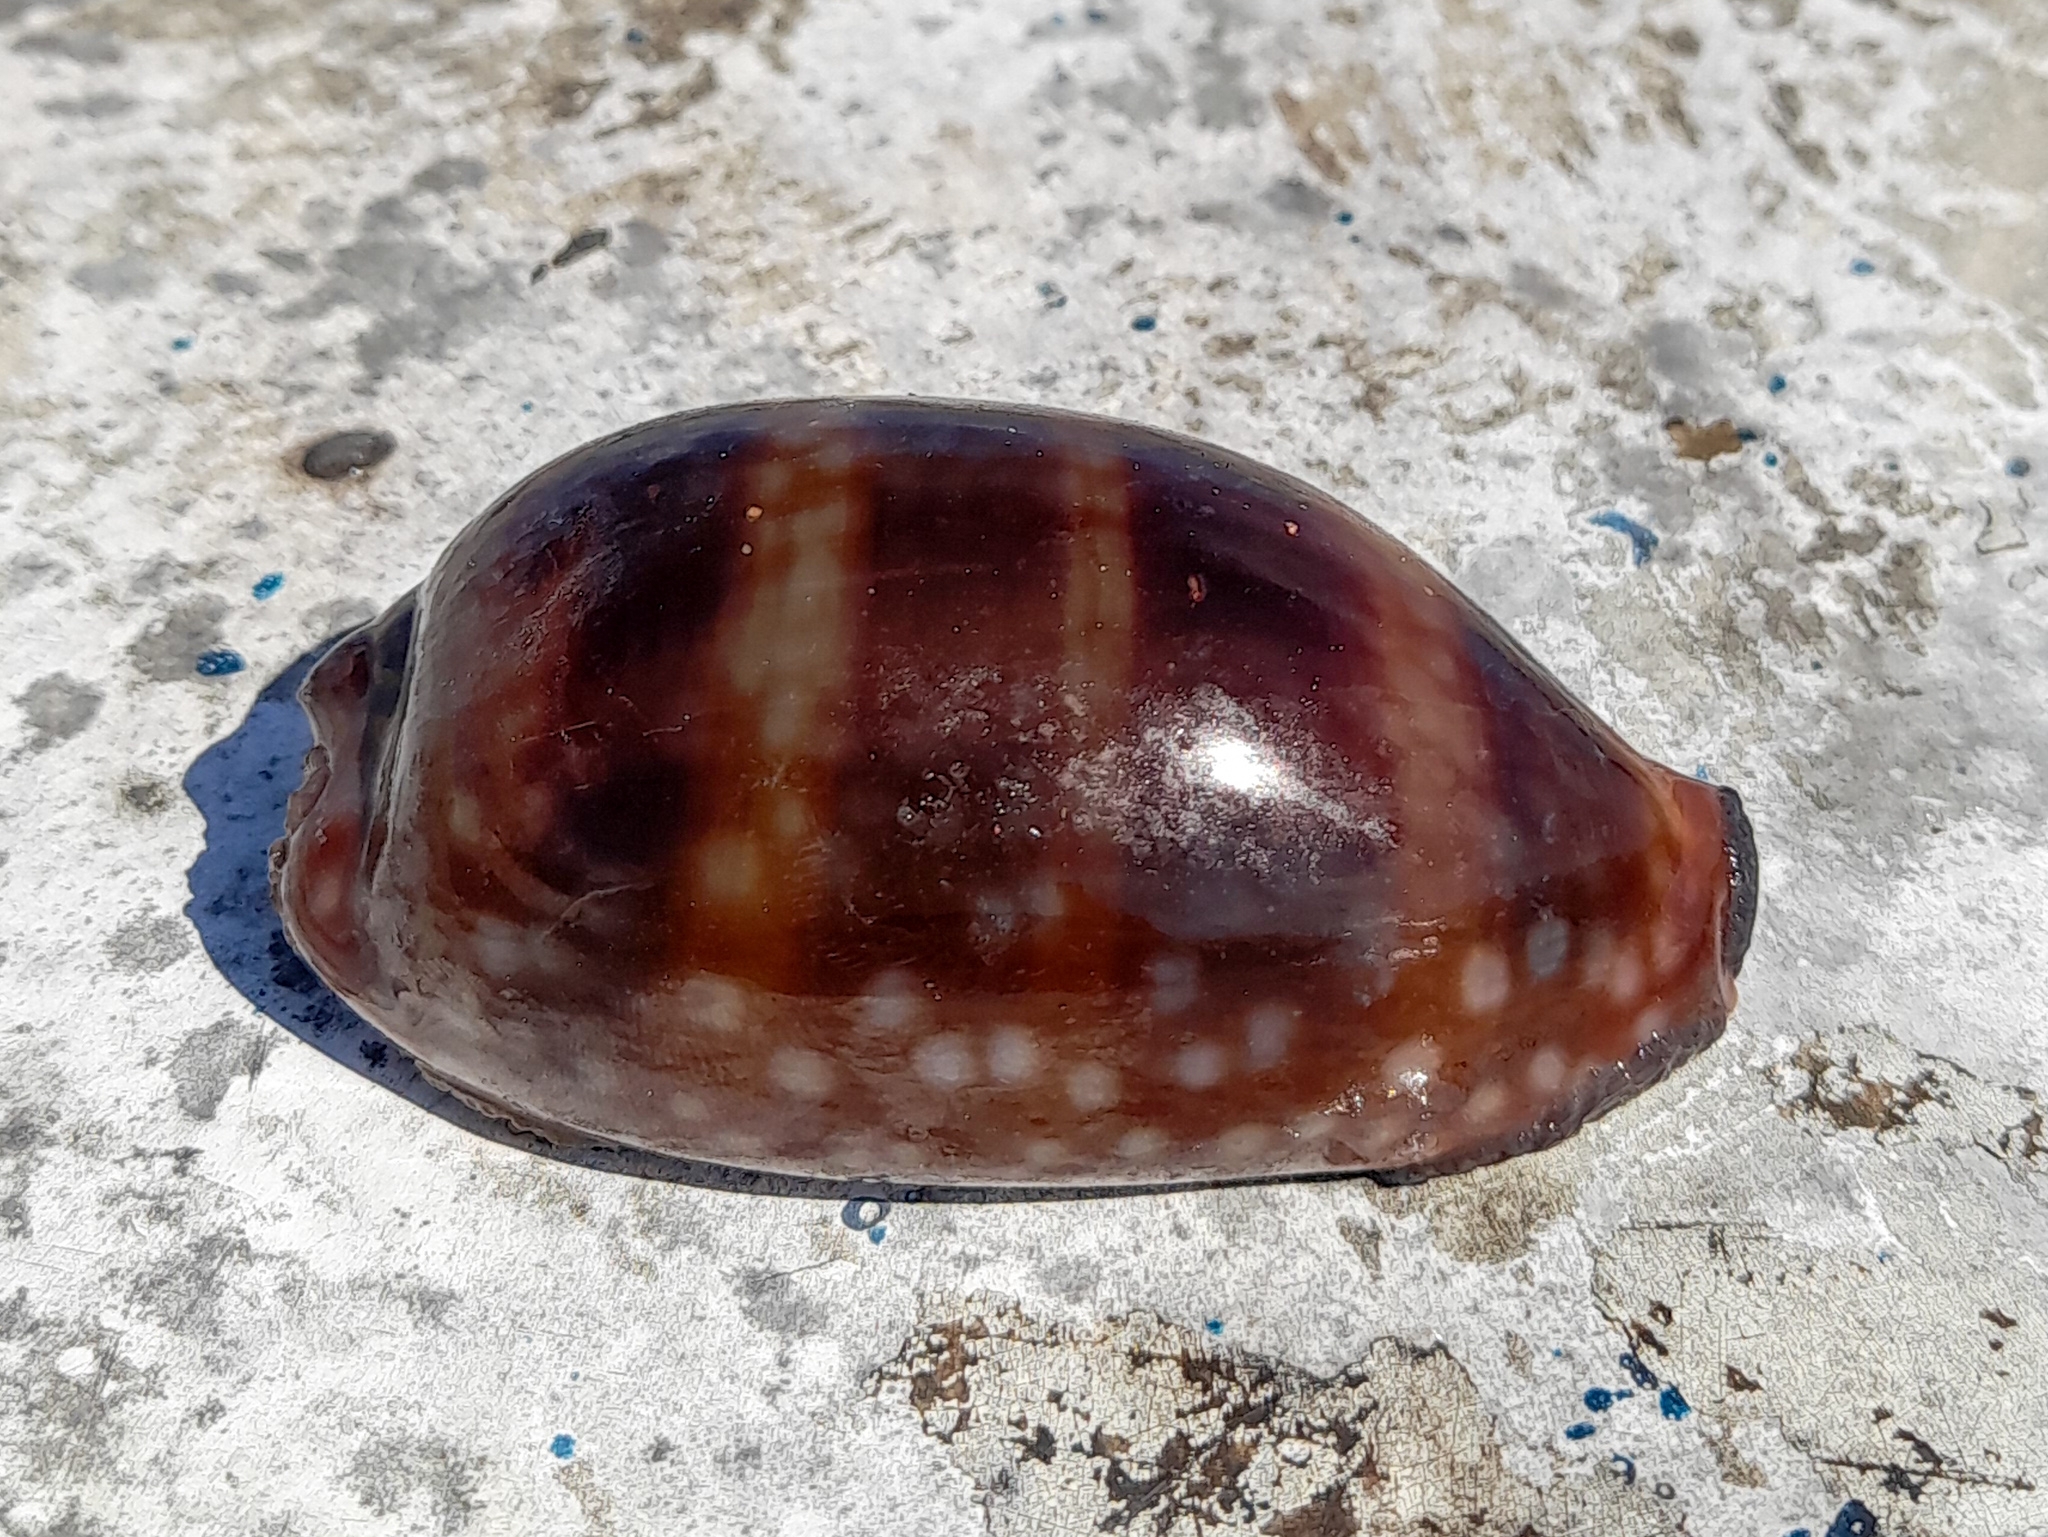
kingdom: Animalia
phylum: Mollusca
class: Gastropoda
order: Littorinimorpha
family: Cypraeidae
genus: Macrocypraea
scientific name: Macrocypraea zebra
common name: Measled cowrie
